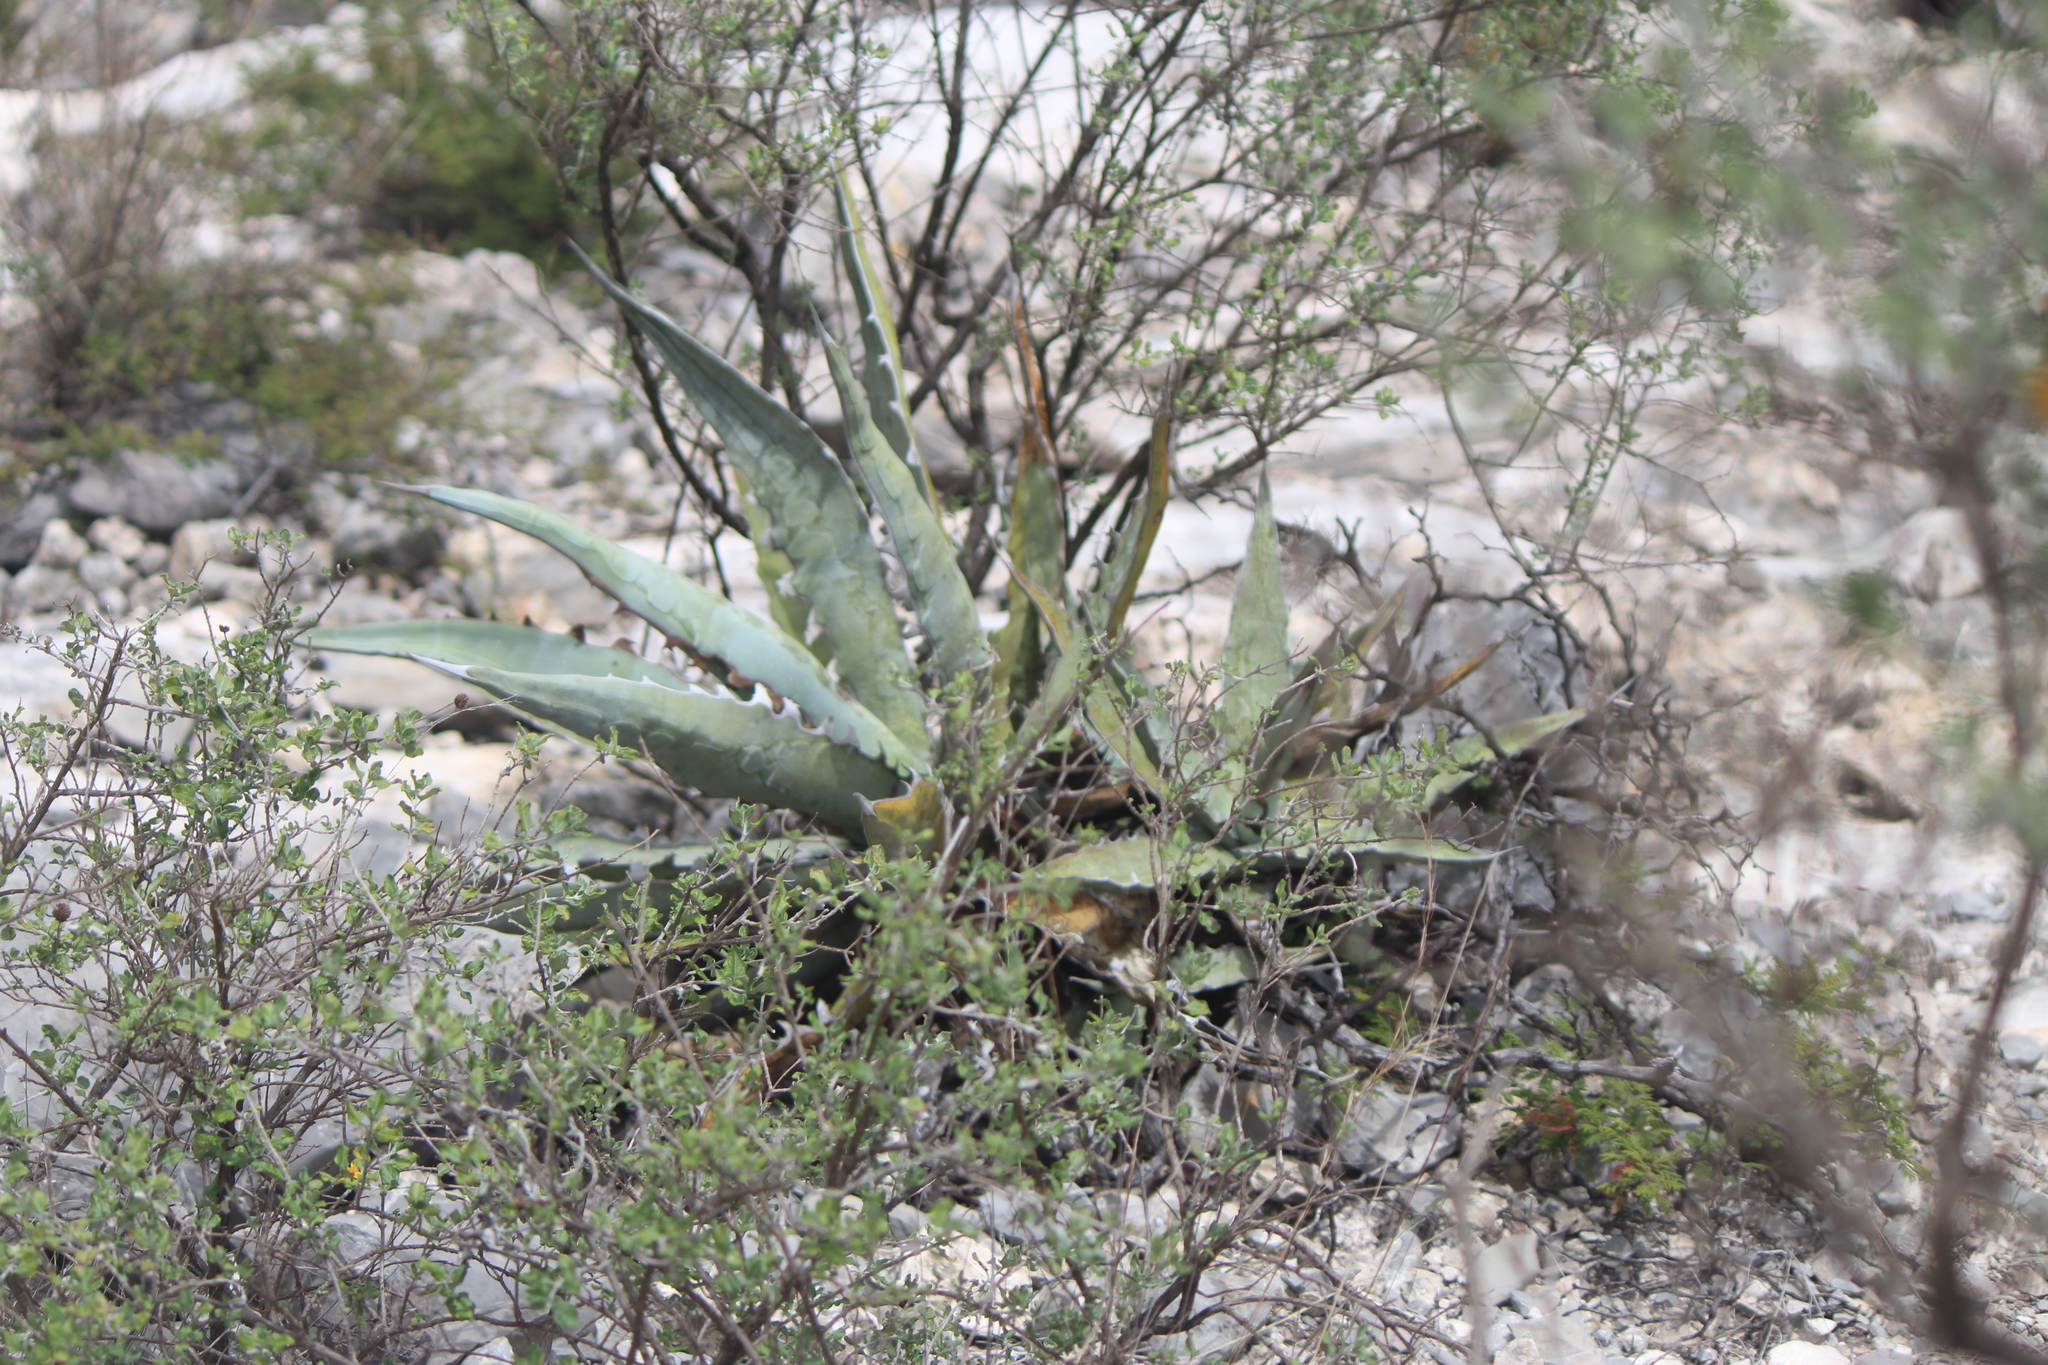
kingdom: Plantae
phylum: Tracheophyta
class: Liliopsida
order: Asparagales
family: Asparagaceae
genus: Agave
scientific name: Agave xylonacantha
